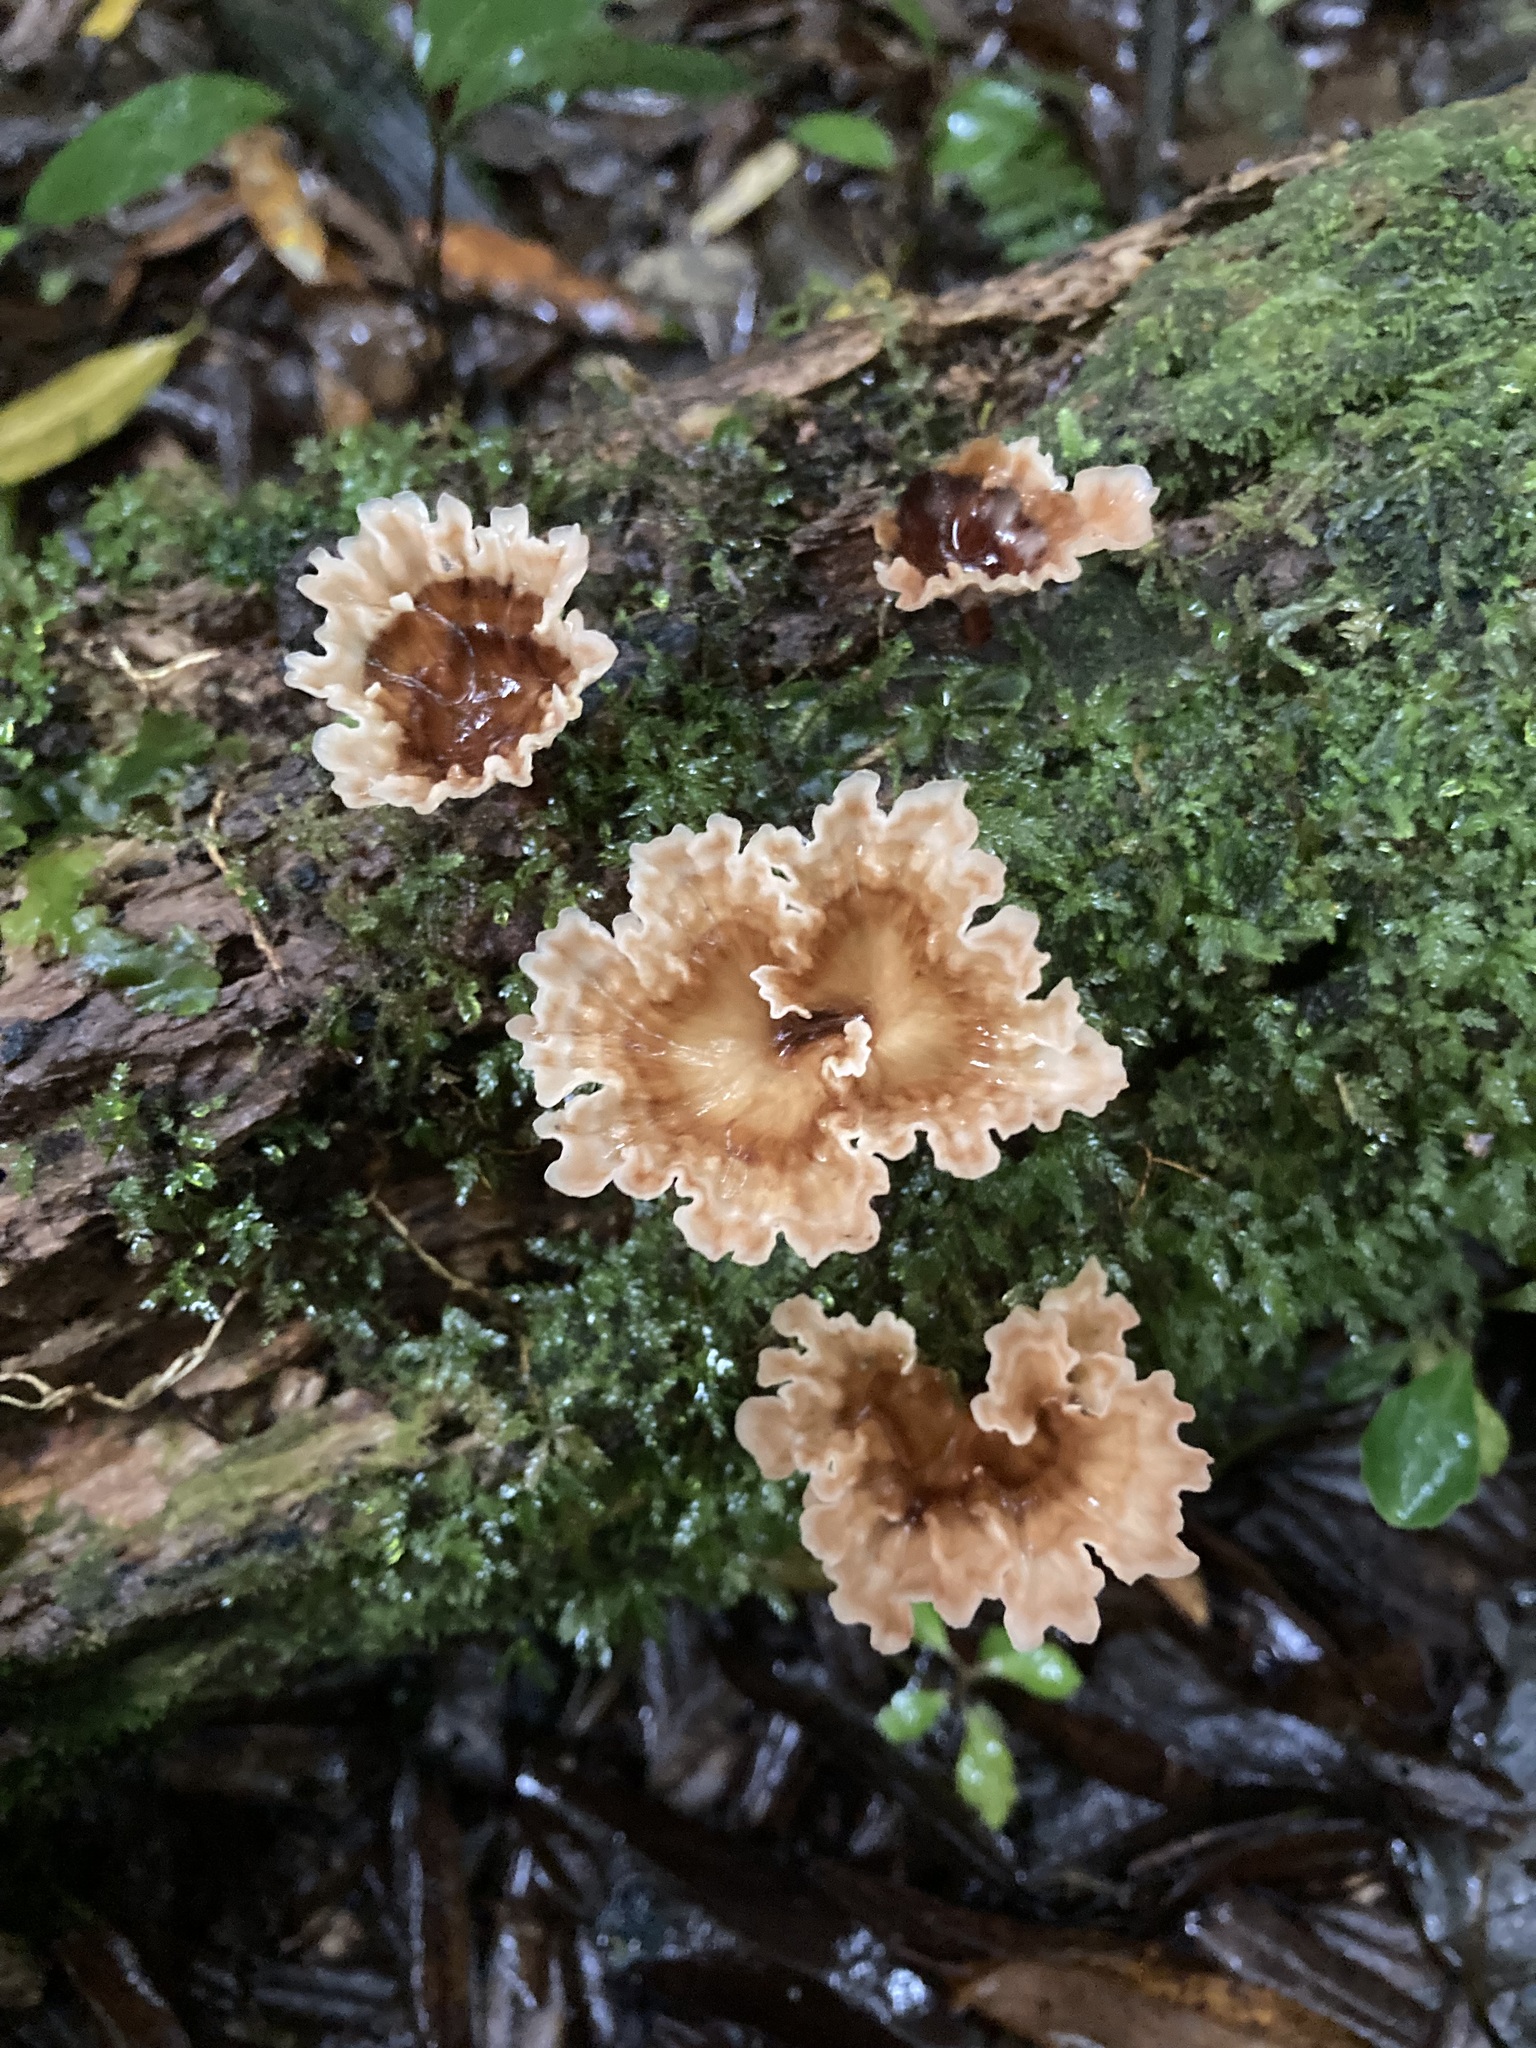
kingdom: Fungi
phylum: Basidiomycota
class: Agaricomycetes
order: Polyporales
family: Podoscyphaceae
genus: Podoscypha
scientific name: Podoscypha petalodes
